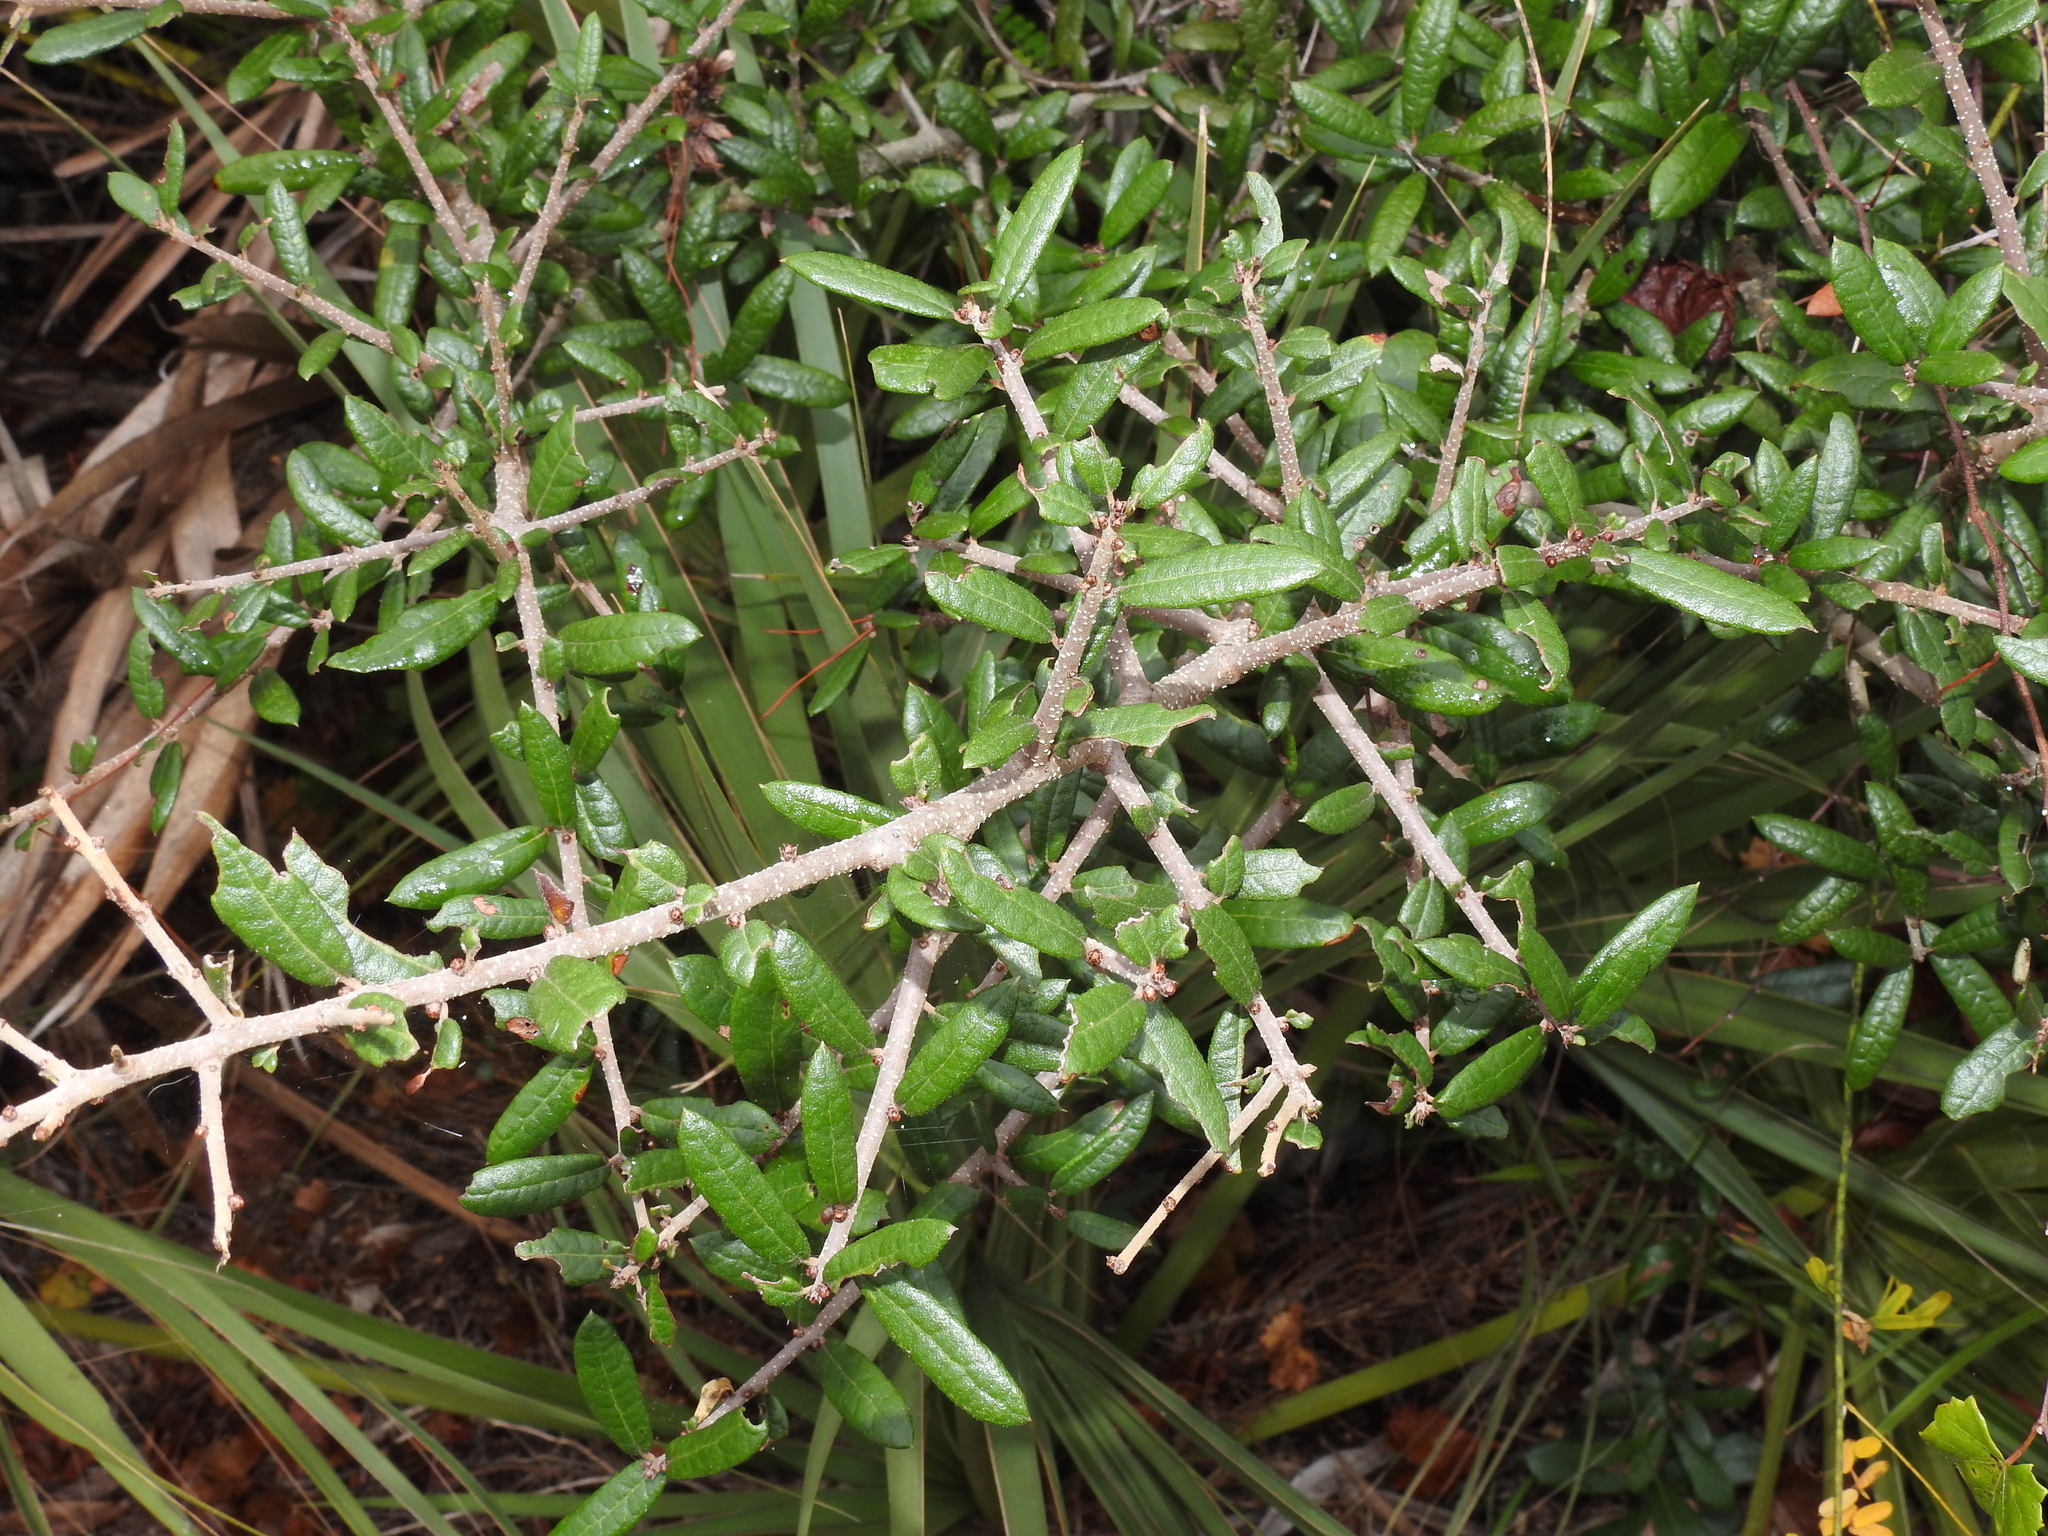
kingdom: Plantae
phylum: Tracheophyta
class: Magnoliopsida
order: Fagales
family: Fagaceae
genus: Quercus
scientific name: Quercus geminata
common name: Sand live oak
